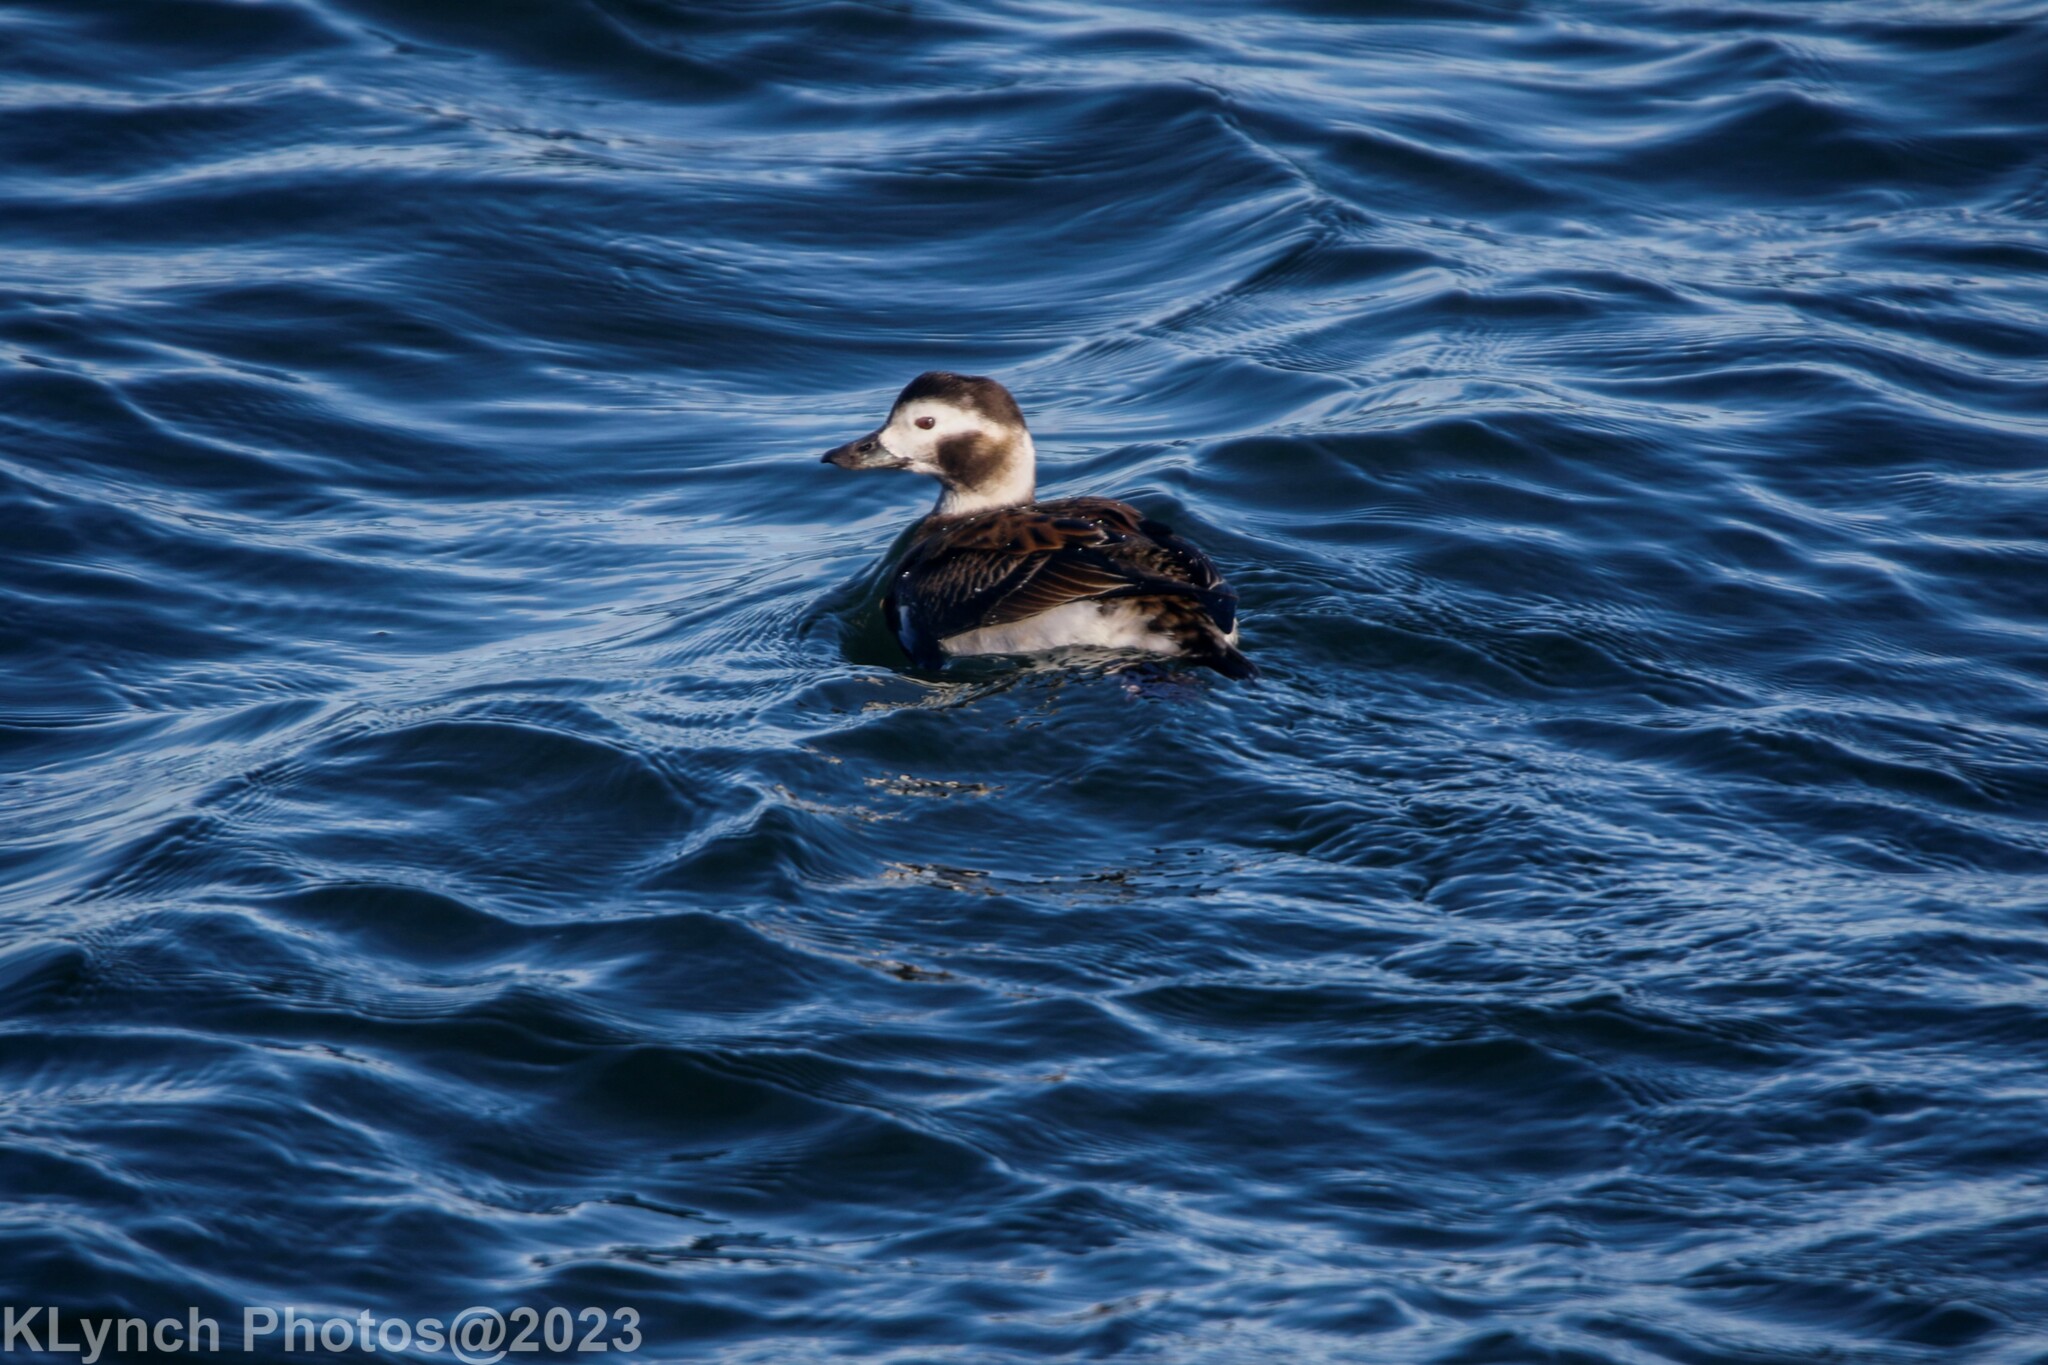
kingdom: Animalia
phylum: Chordata
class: Aves
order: Anseriformes
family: Anatidae
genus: Clangula
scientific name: Clangula hyemalis
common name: Long-tailed duck
